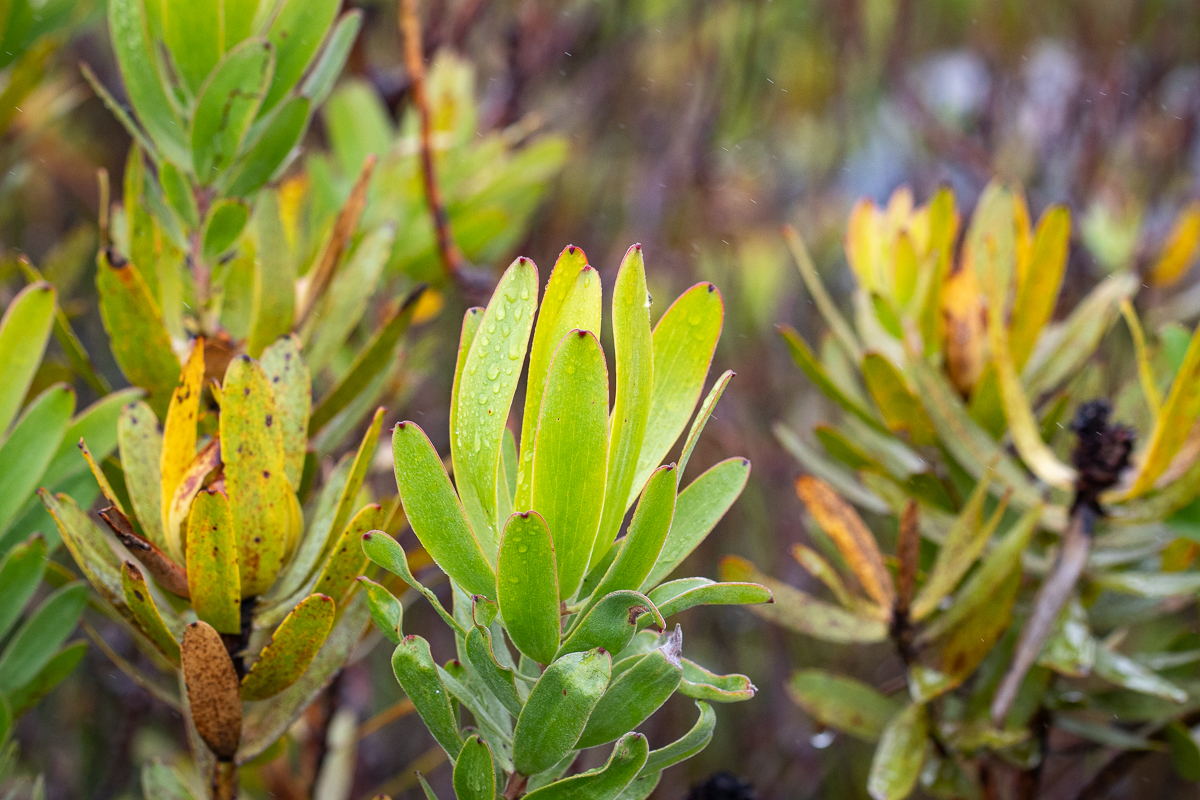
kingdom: Plantae
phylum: Tracheophyta
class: Magnoliopsida
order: Proteales
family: Proteaceae
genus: Leucadendron
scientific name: Leucadendron laureolum
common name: Golden sunshinebush
